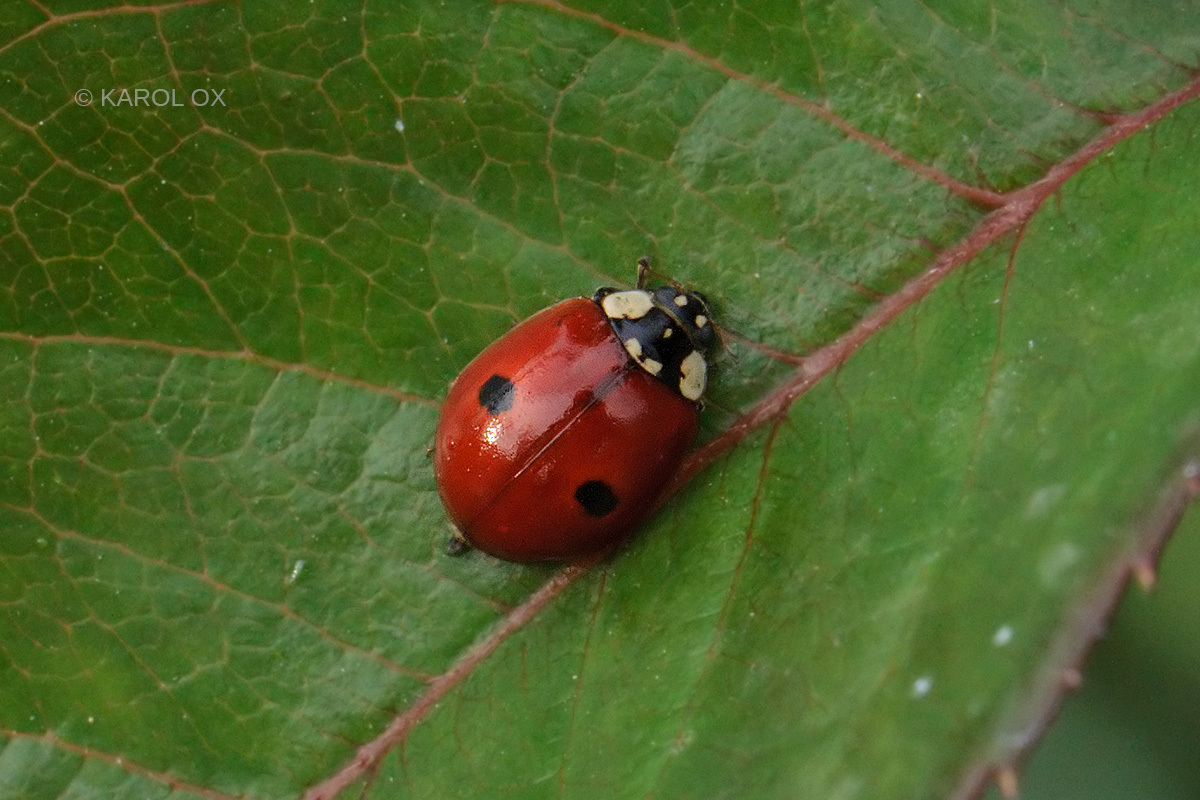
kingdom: Animalia
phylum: Arthropoda
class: Insecta
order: Coleoptera
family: Coccinellidae
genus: Adalia
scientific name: Adalia bipunctata
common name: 2-spot ladybird
